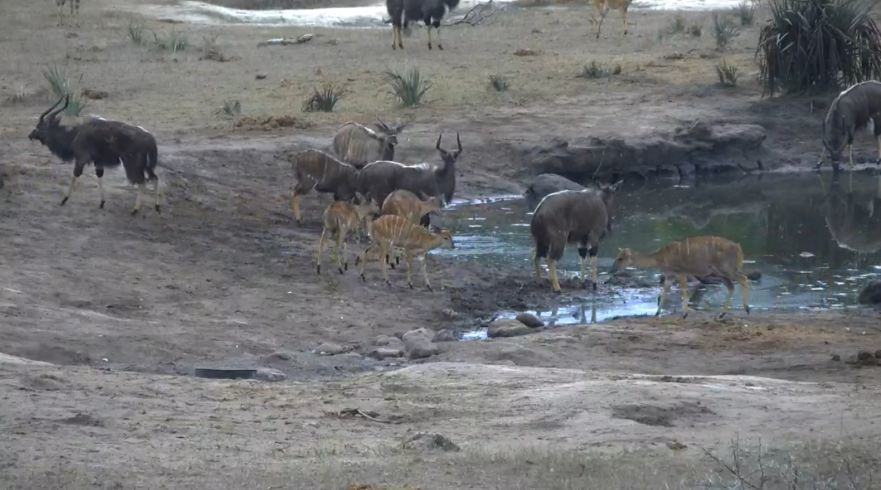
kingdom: Animalia
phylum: Chordata
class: Mammalia
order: Artiodactyla
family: Bovidae
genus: Tragelaphus
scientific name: Tragelaphus angasii
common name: Nyala
